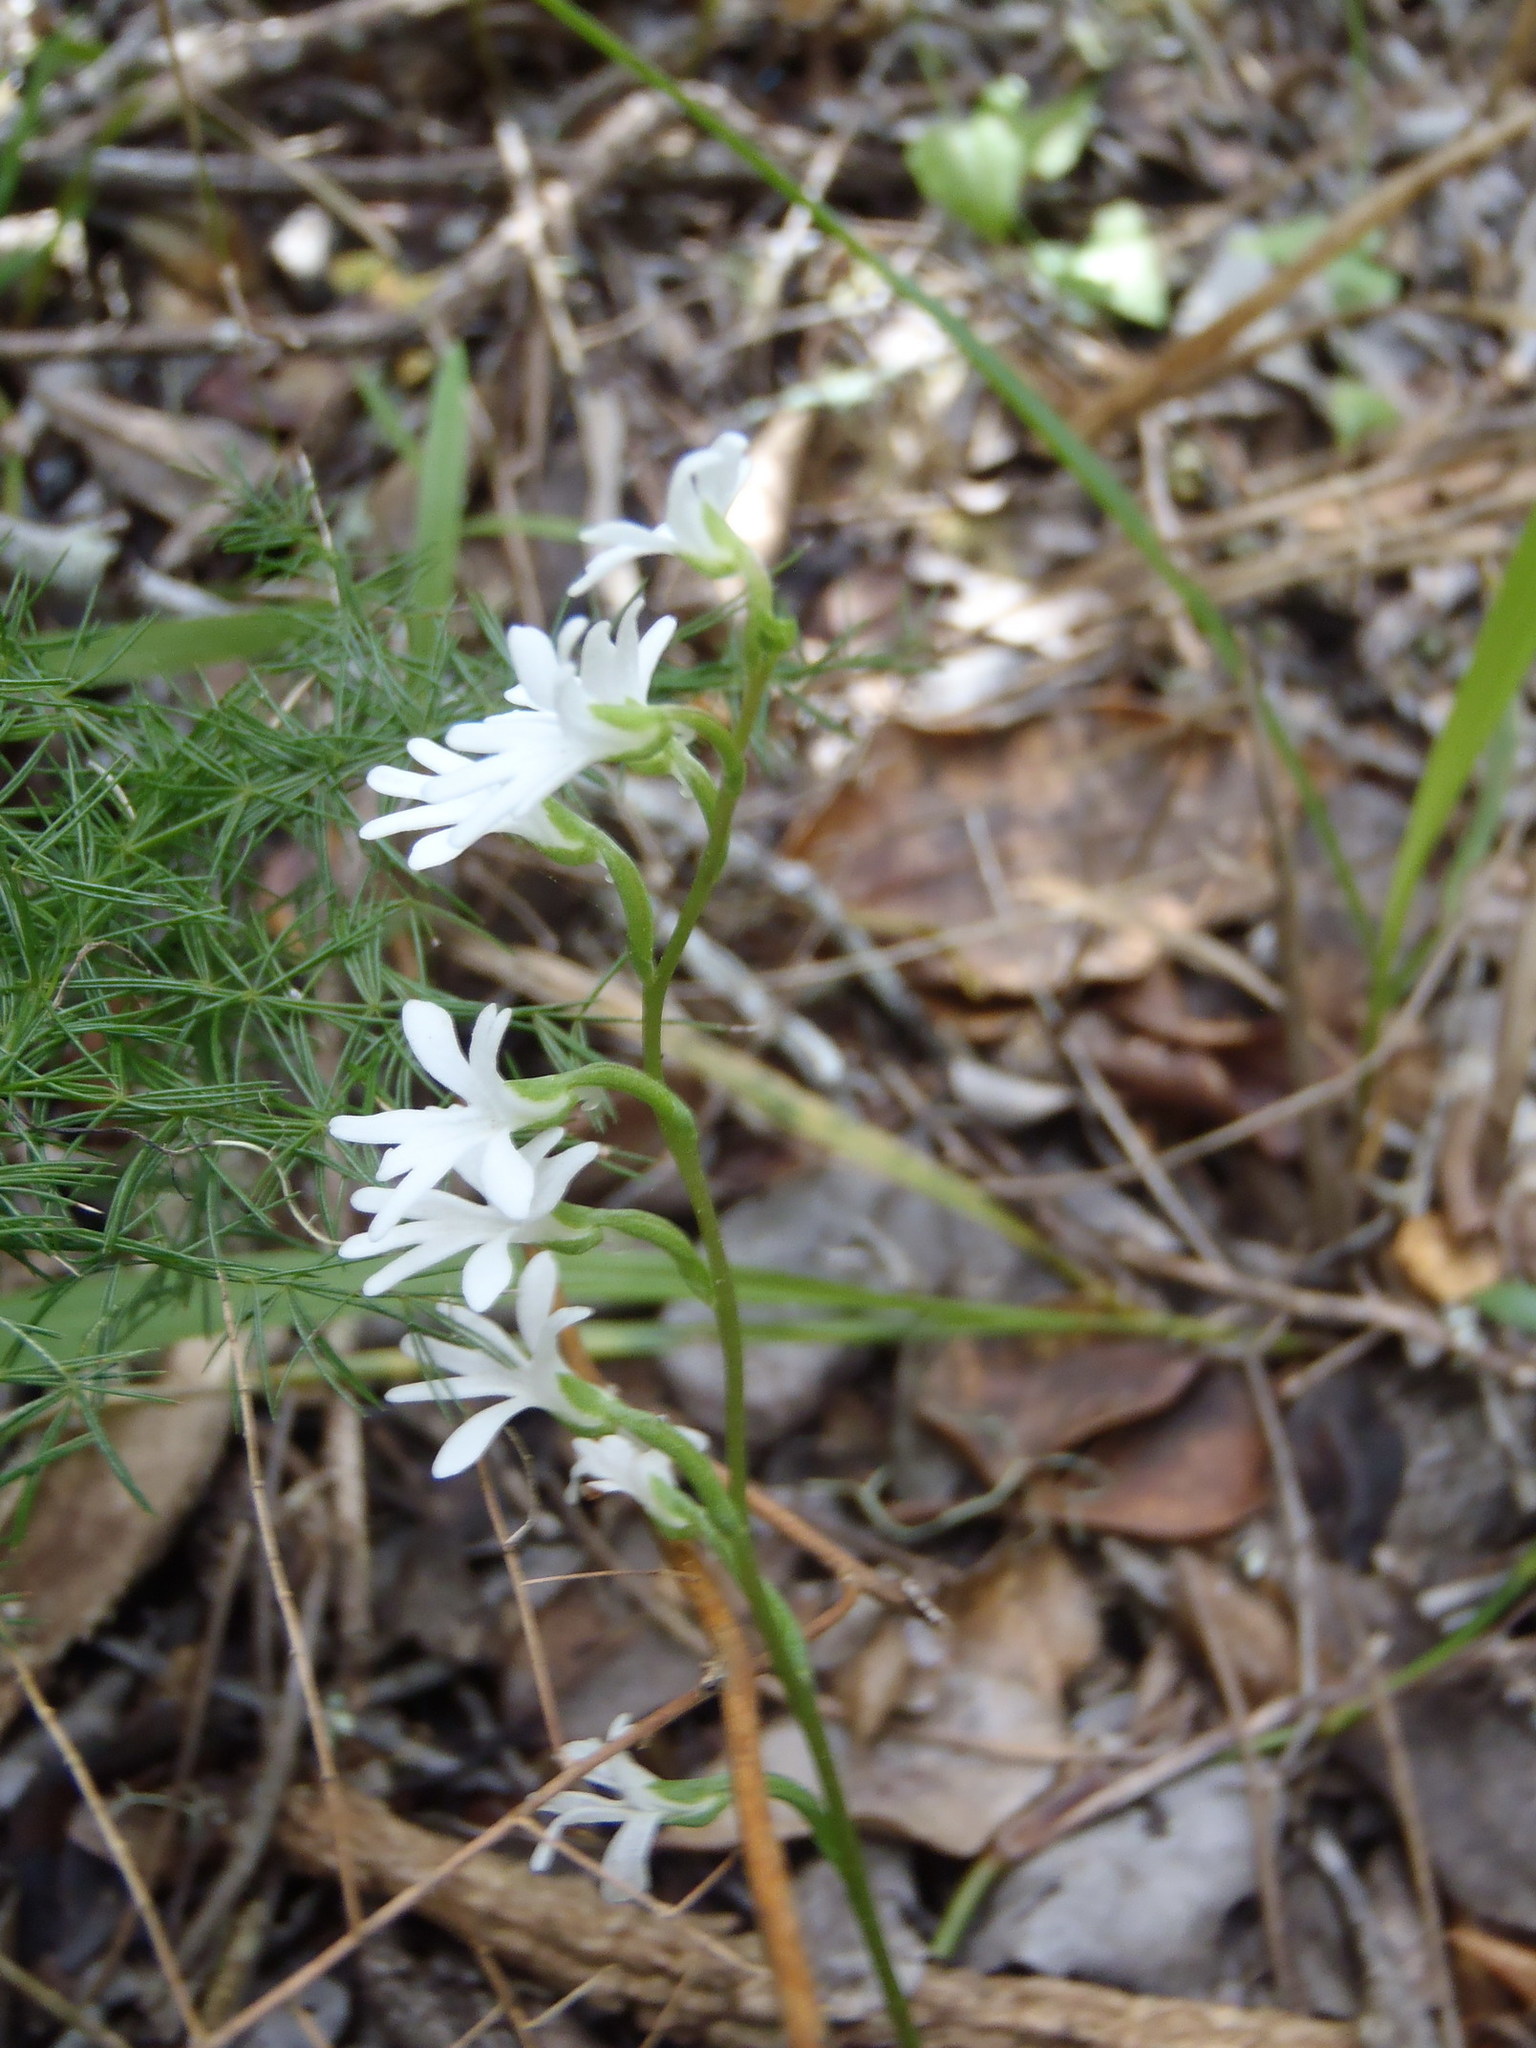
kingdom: Plantae
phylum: Tracheophyta
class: Liliopsida
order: Asparagales
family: Orchidaceae
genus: Holothrix
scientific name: Holothrix parviflora
